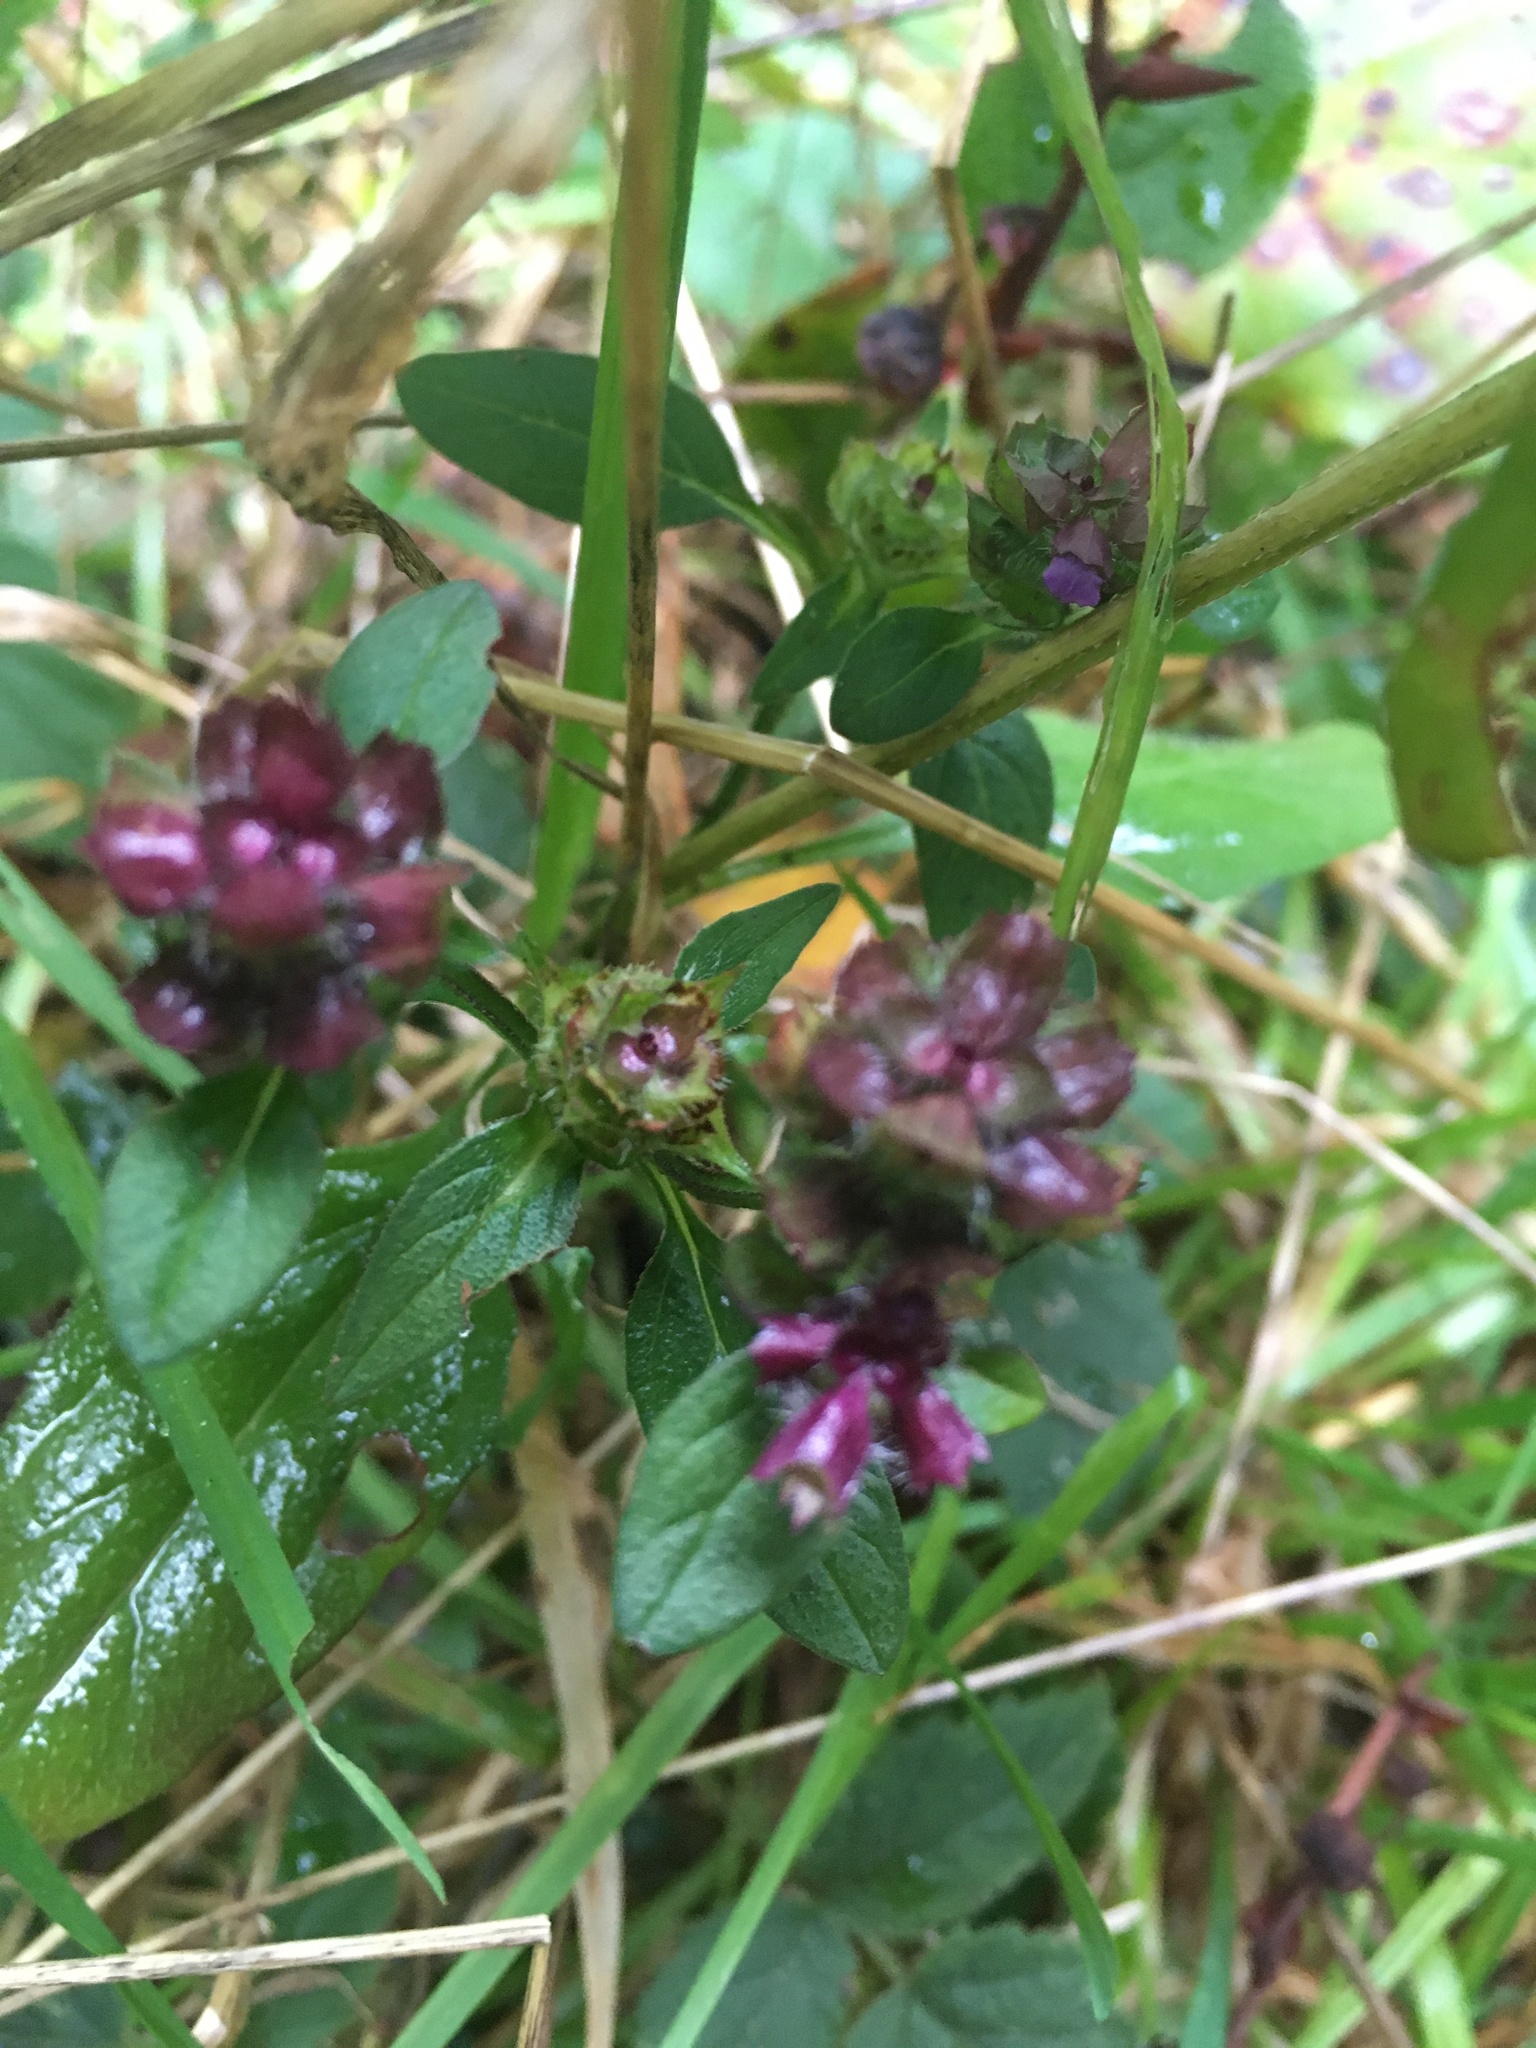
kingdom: Plantae
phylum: Tracheophyta
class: Magnoliopsida
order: Lamiales
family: Lamiaceae
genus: Prunella
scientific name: Prunella vulgaris
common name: Heal-all
